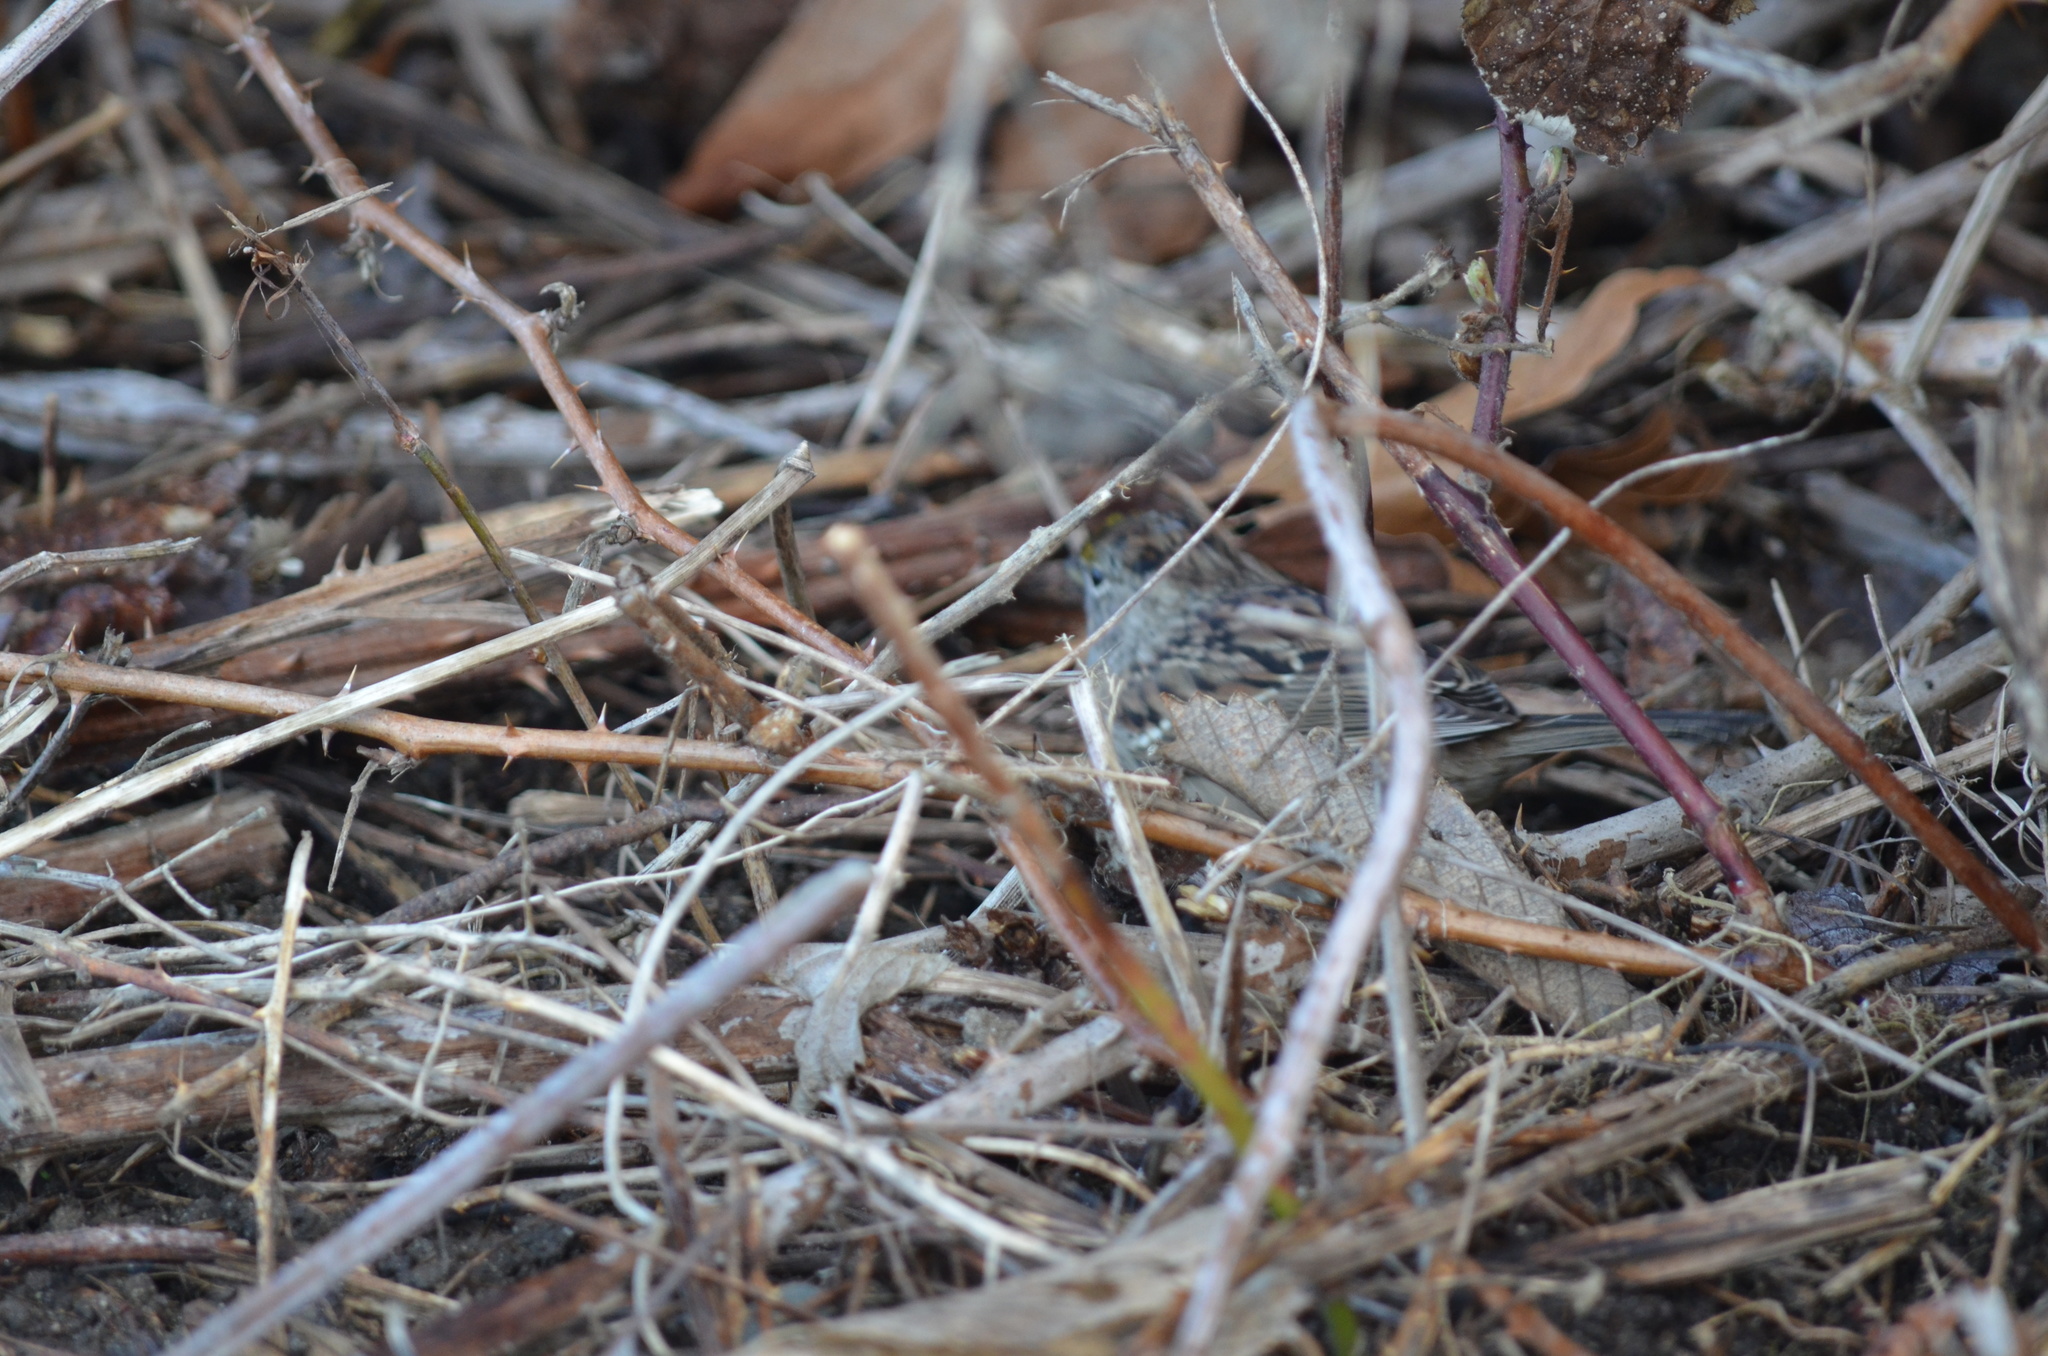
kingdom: Animalia
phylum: Chordata
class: Aves
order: Passeriformes
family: Passerellidae
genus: Zonotrichia
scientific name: Zonotrichia atricapilla
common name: Golden-crowned sparrow
